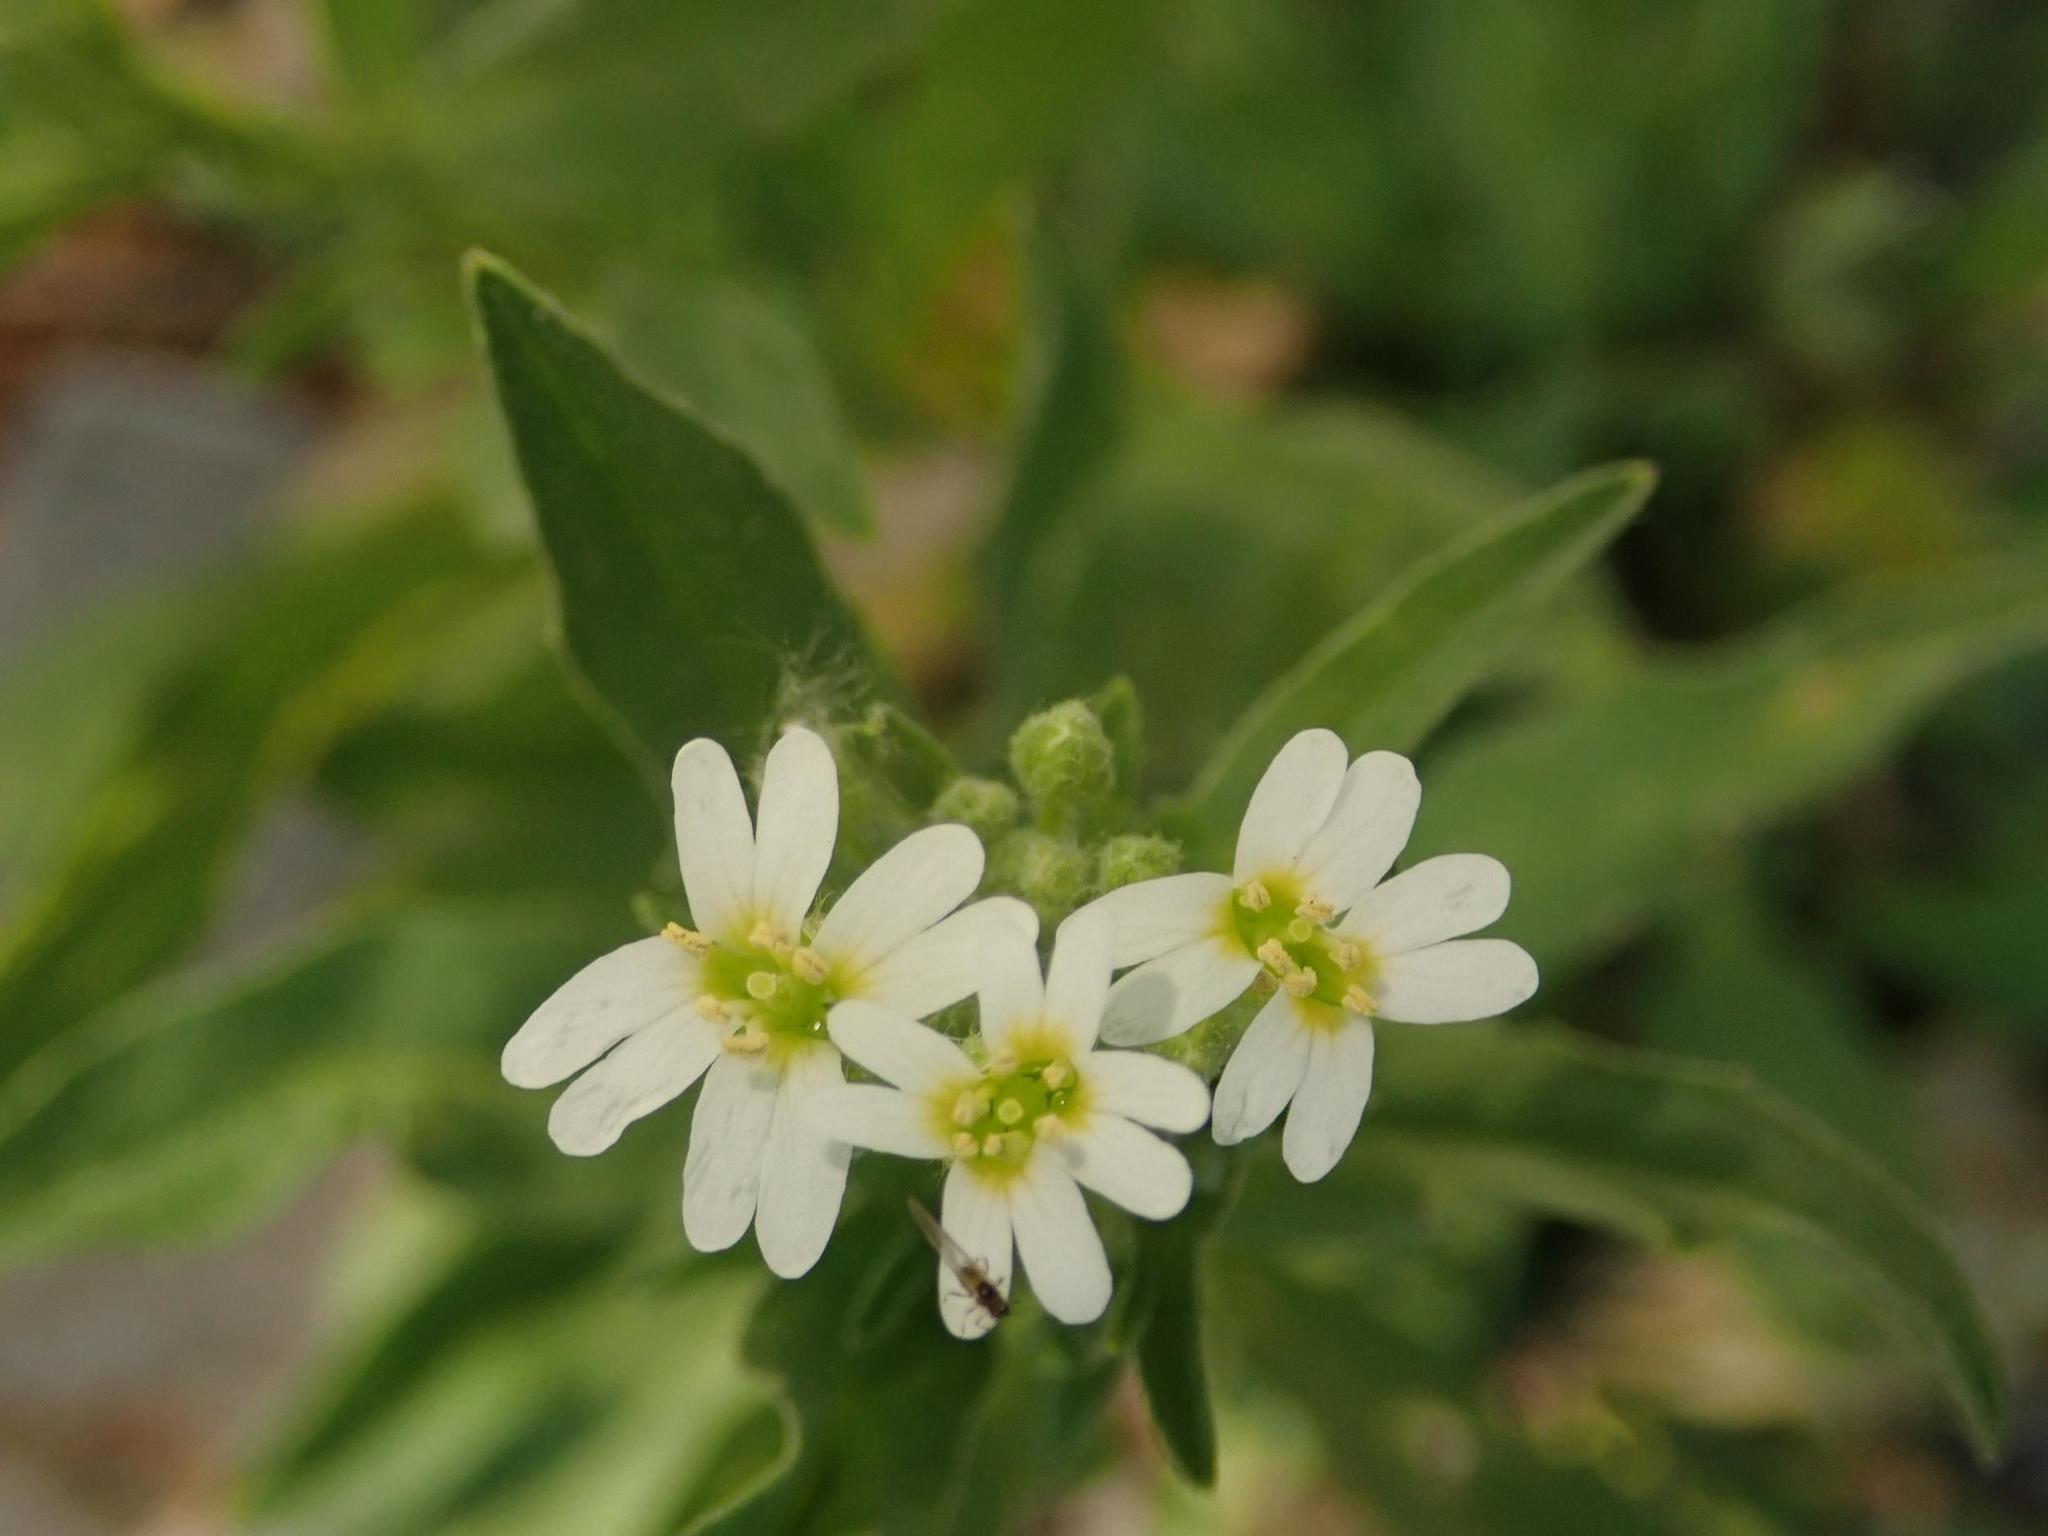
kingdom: Plantae
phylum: Tracheophyta
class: Magnoliopsida
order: Brassicales
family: Brassicaceae
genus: Berteroa
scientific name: Berteroa incana
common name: Hoary alison
